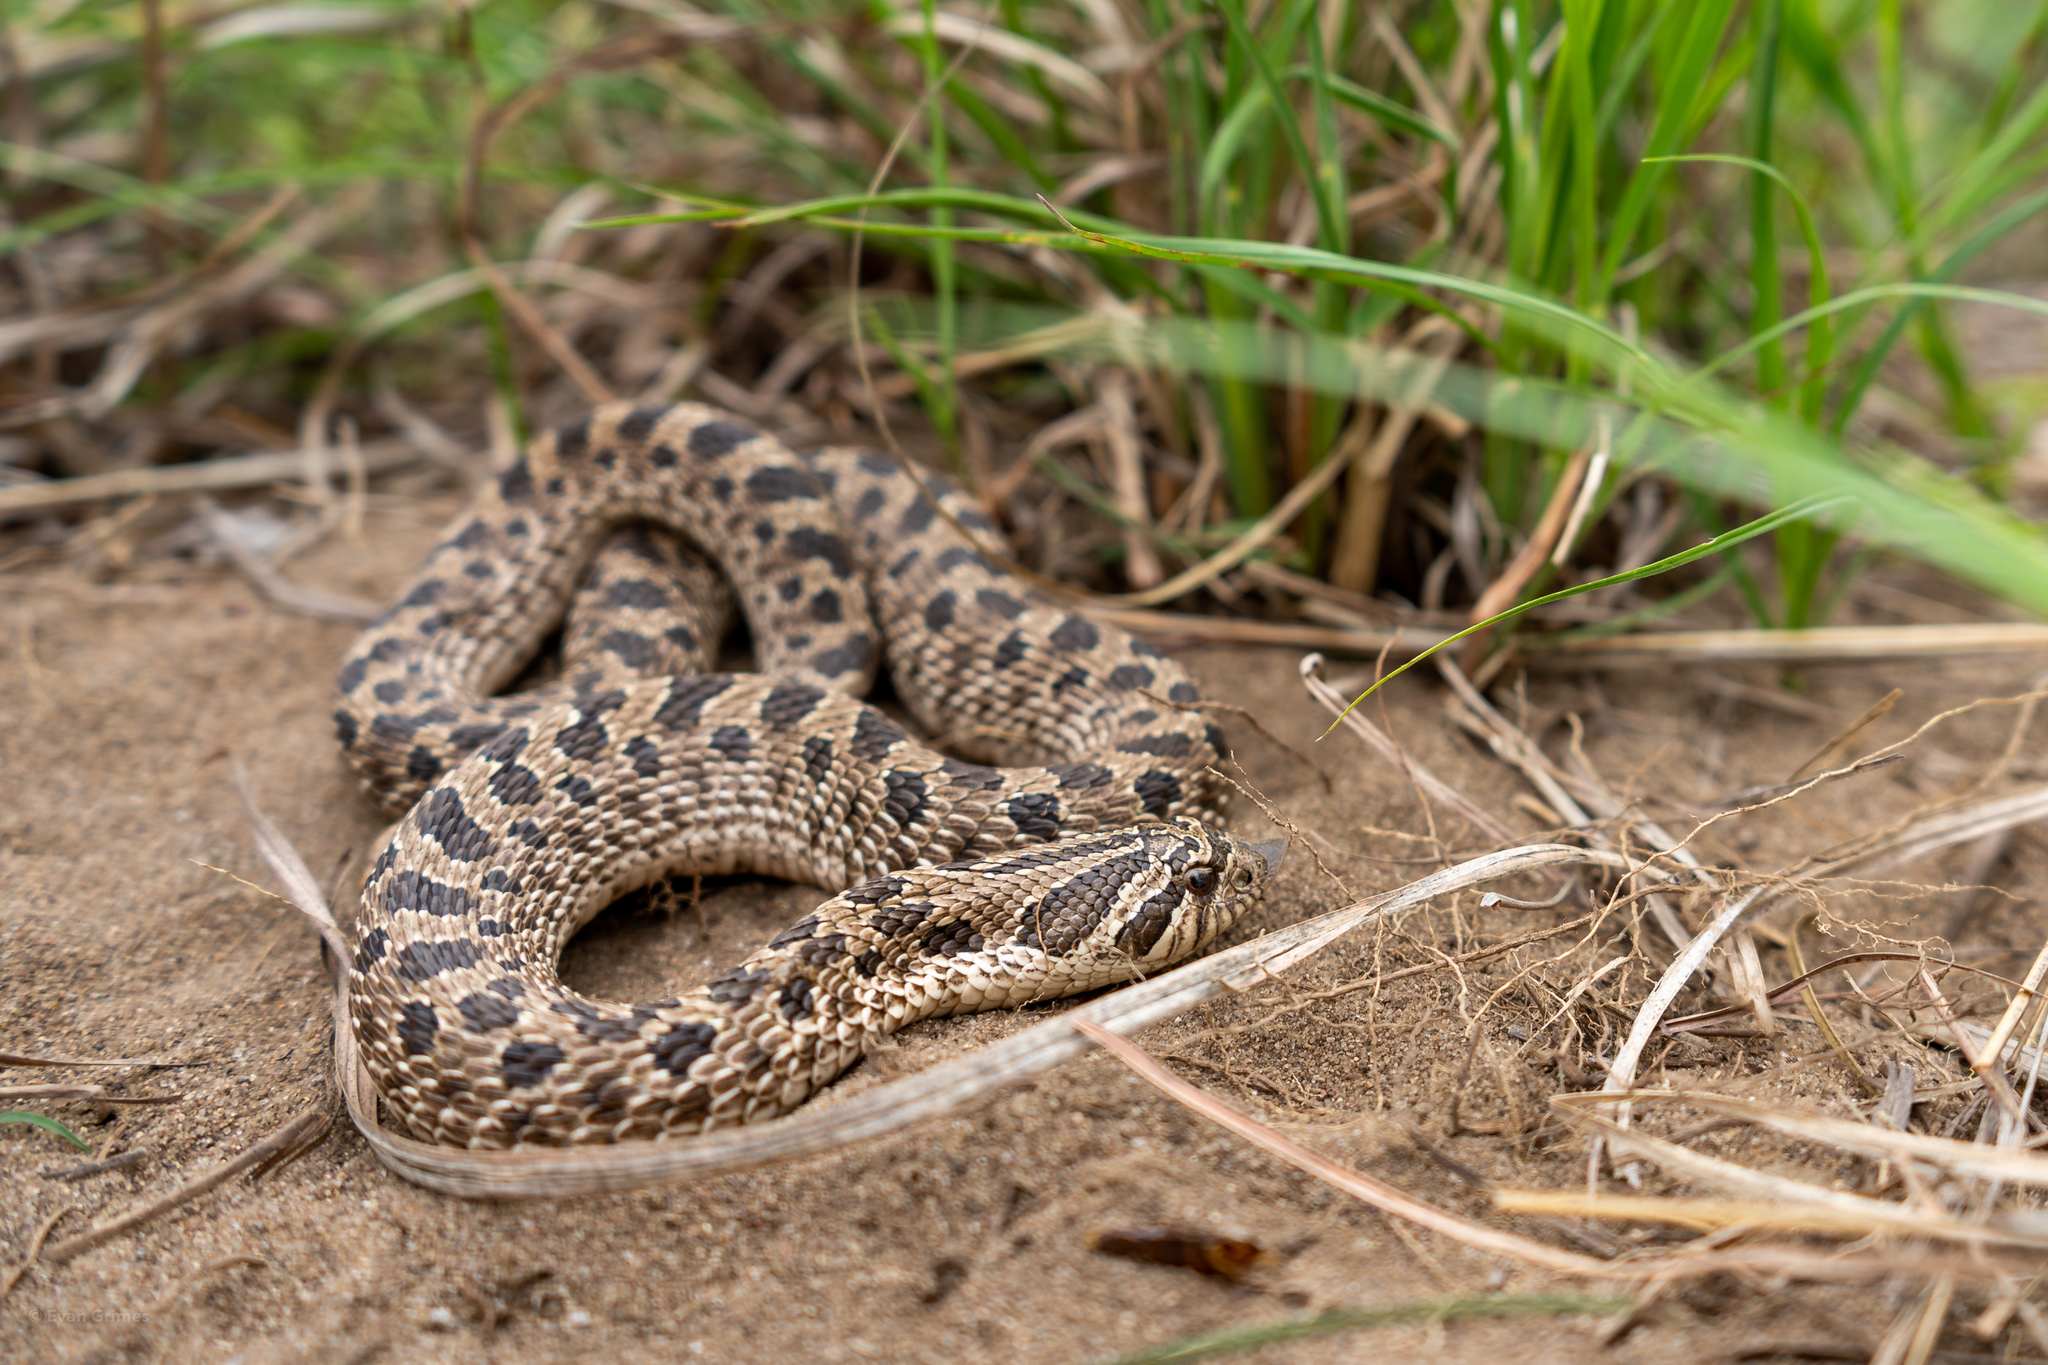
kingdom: Animalia
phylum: Chordata
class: Squamata
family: Colubridae
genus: Heterodon
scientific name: Heterodon nasicus
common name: Western hognose snake
